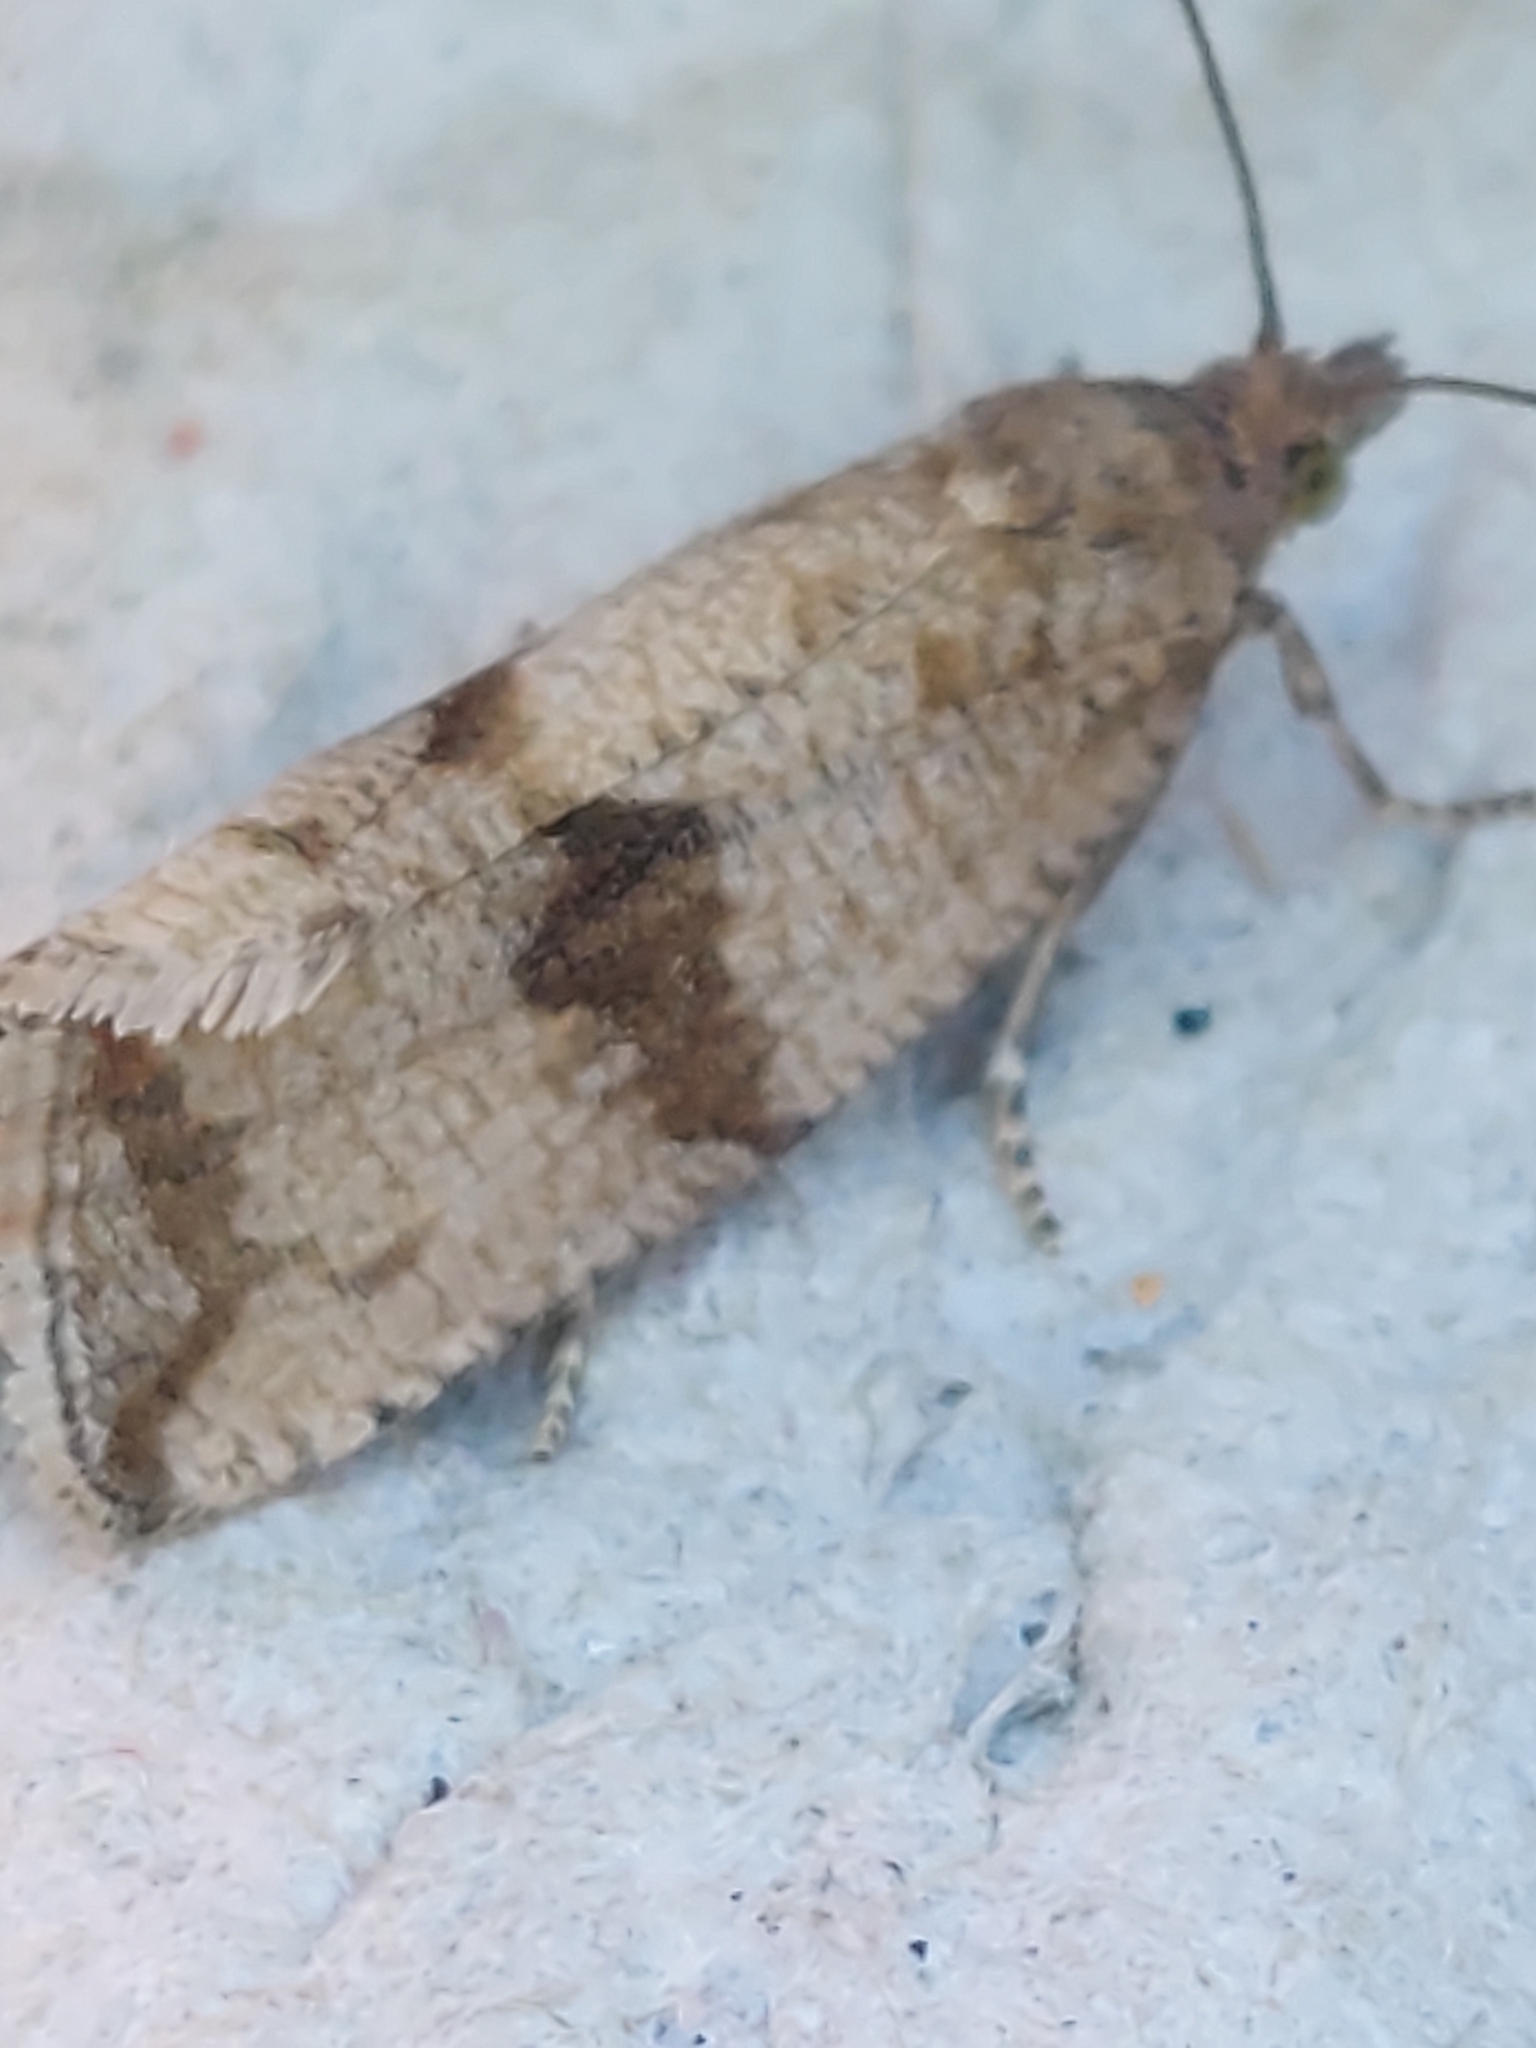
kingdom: Animalia
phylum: Arthropoda
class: Insecta
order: Lepidoptera
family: Tortricidae
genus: Celypha
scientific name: Celypha striana
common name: Barred marble
